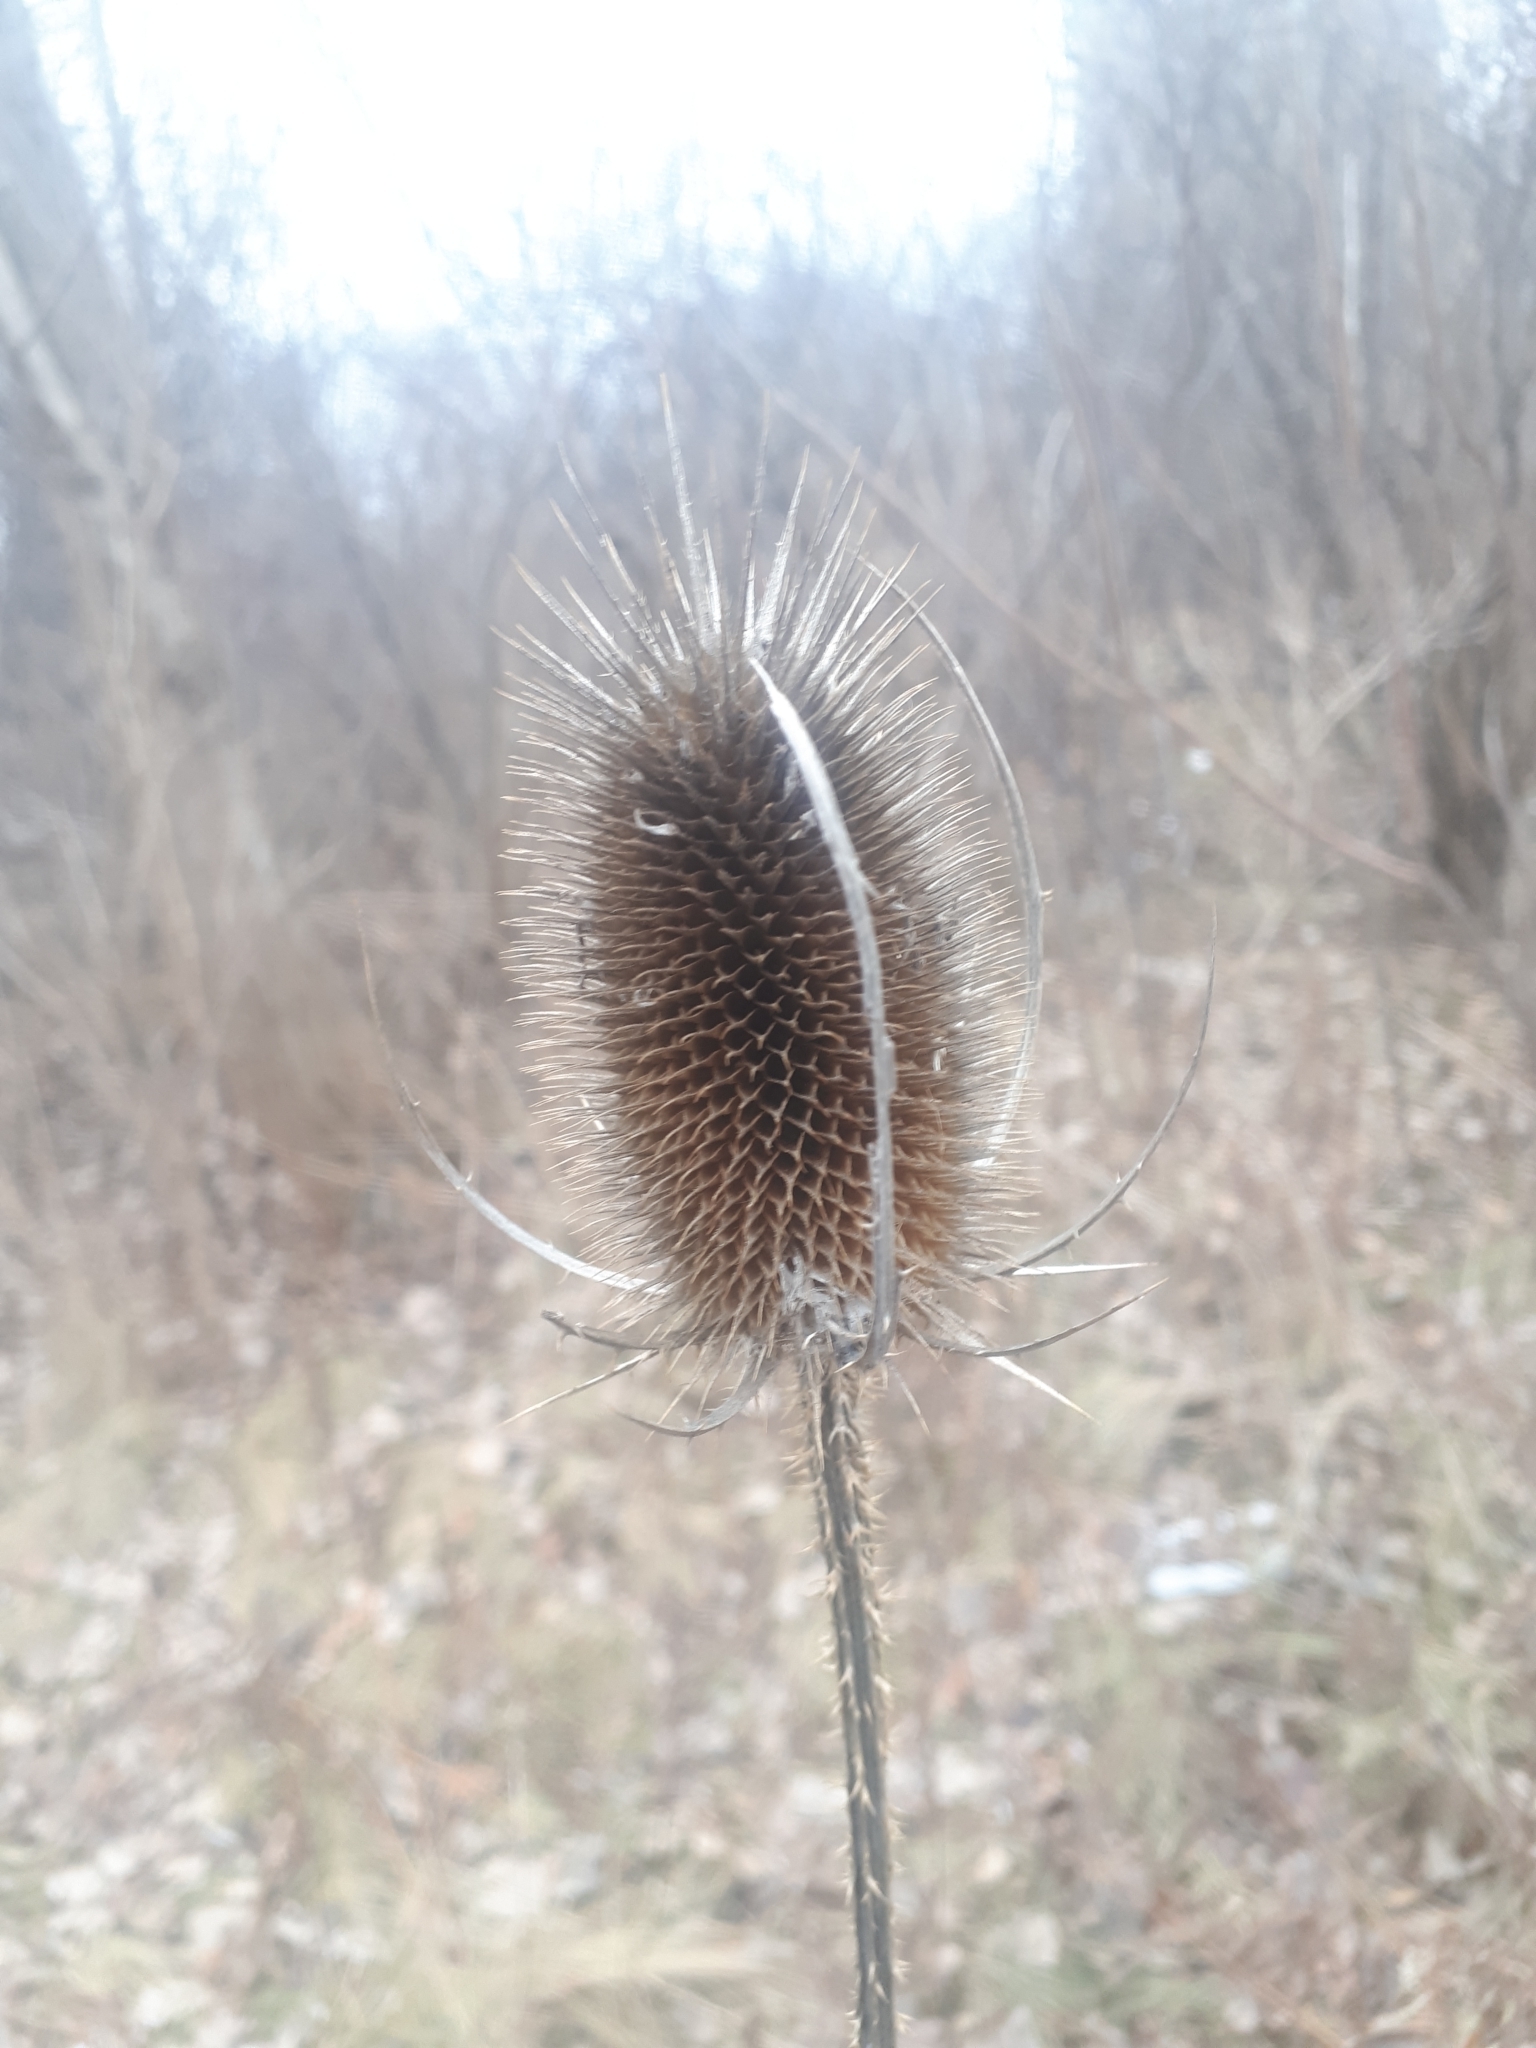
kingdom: Plantae
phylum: Tracheophyta
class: Magnoliopsida
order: Dipsacales
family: Caprifoliaceae
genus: Dipsacus
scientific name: Dipsacus fullonum
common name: Teasel
